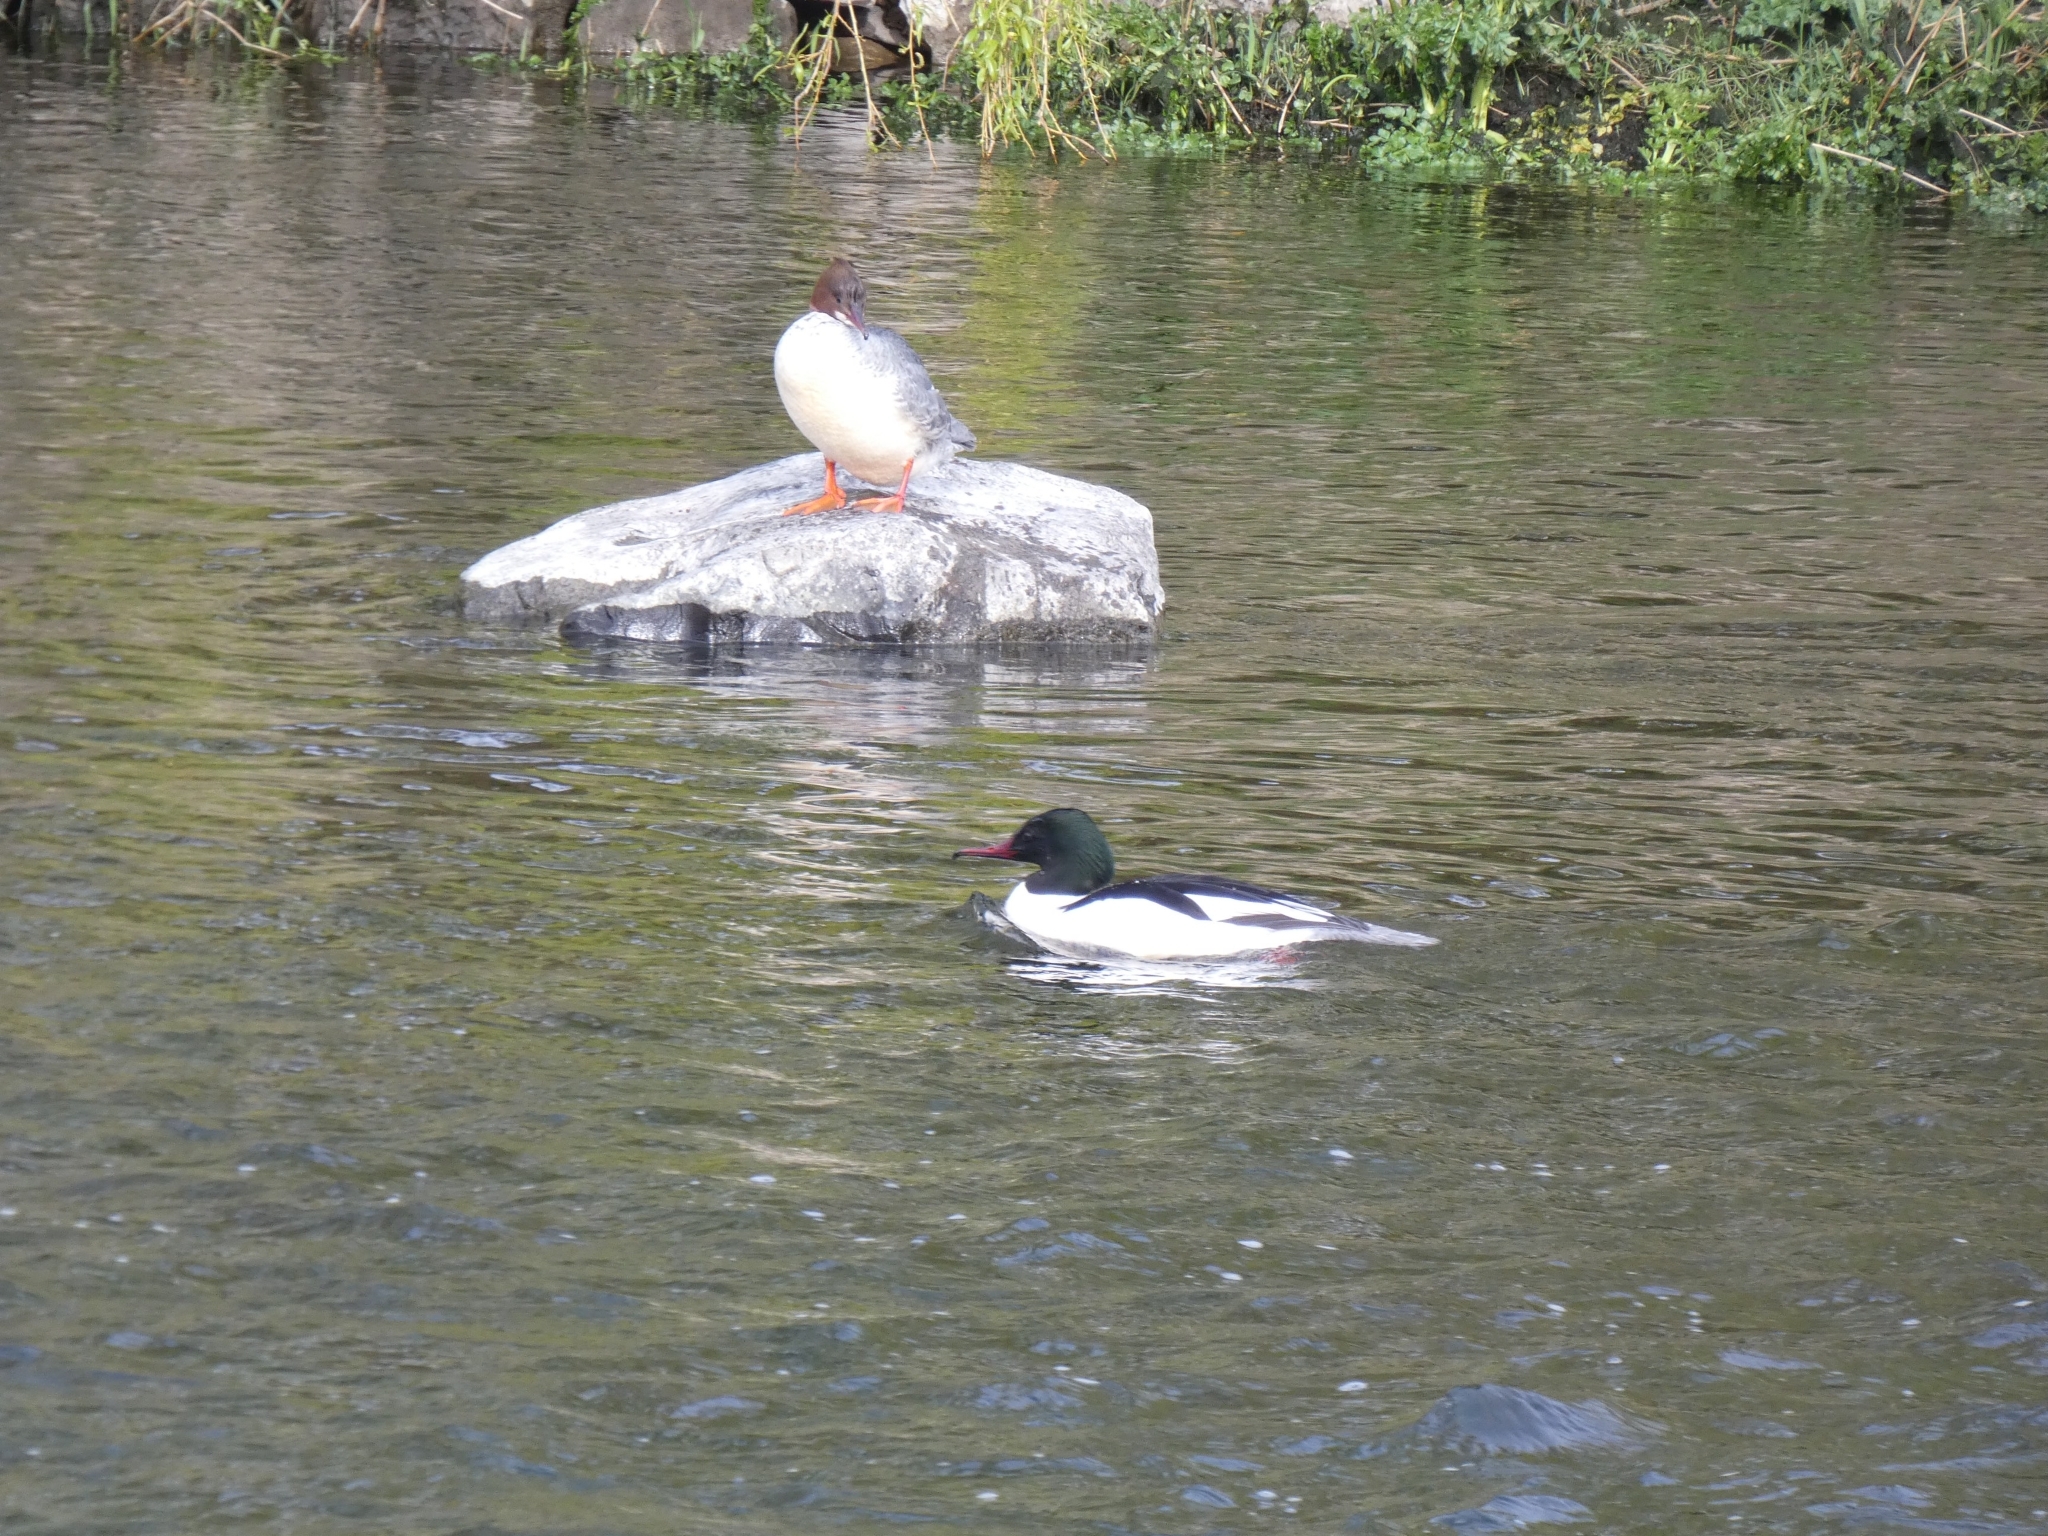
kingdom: Animalia
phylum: Chordata
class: Aves
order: Anseriformes
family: Anatidae
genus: Mergus
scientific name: Mergus merganser
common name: Common merganser
